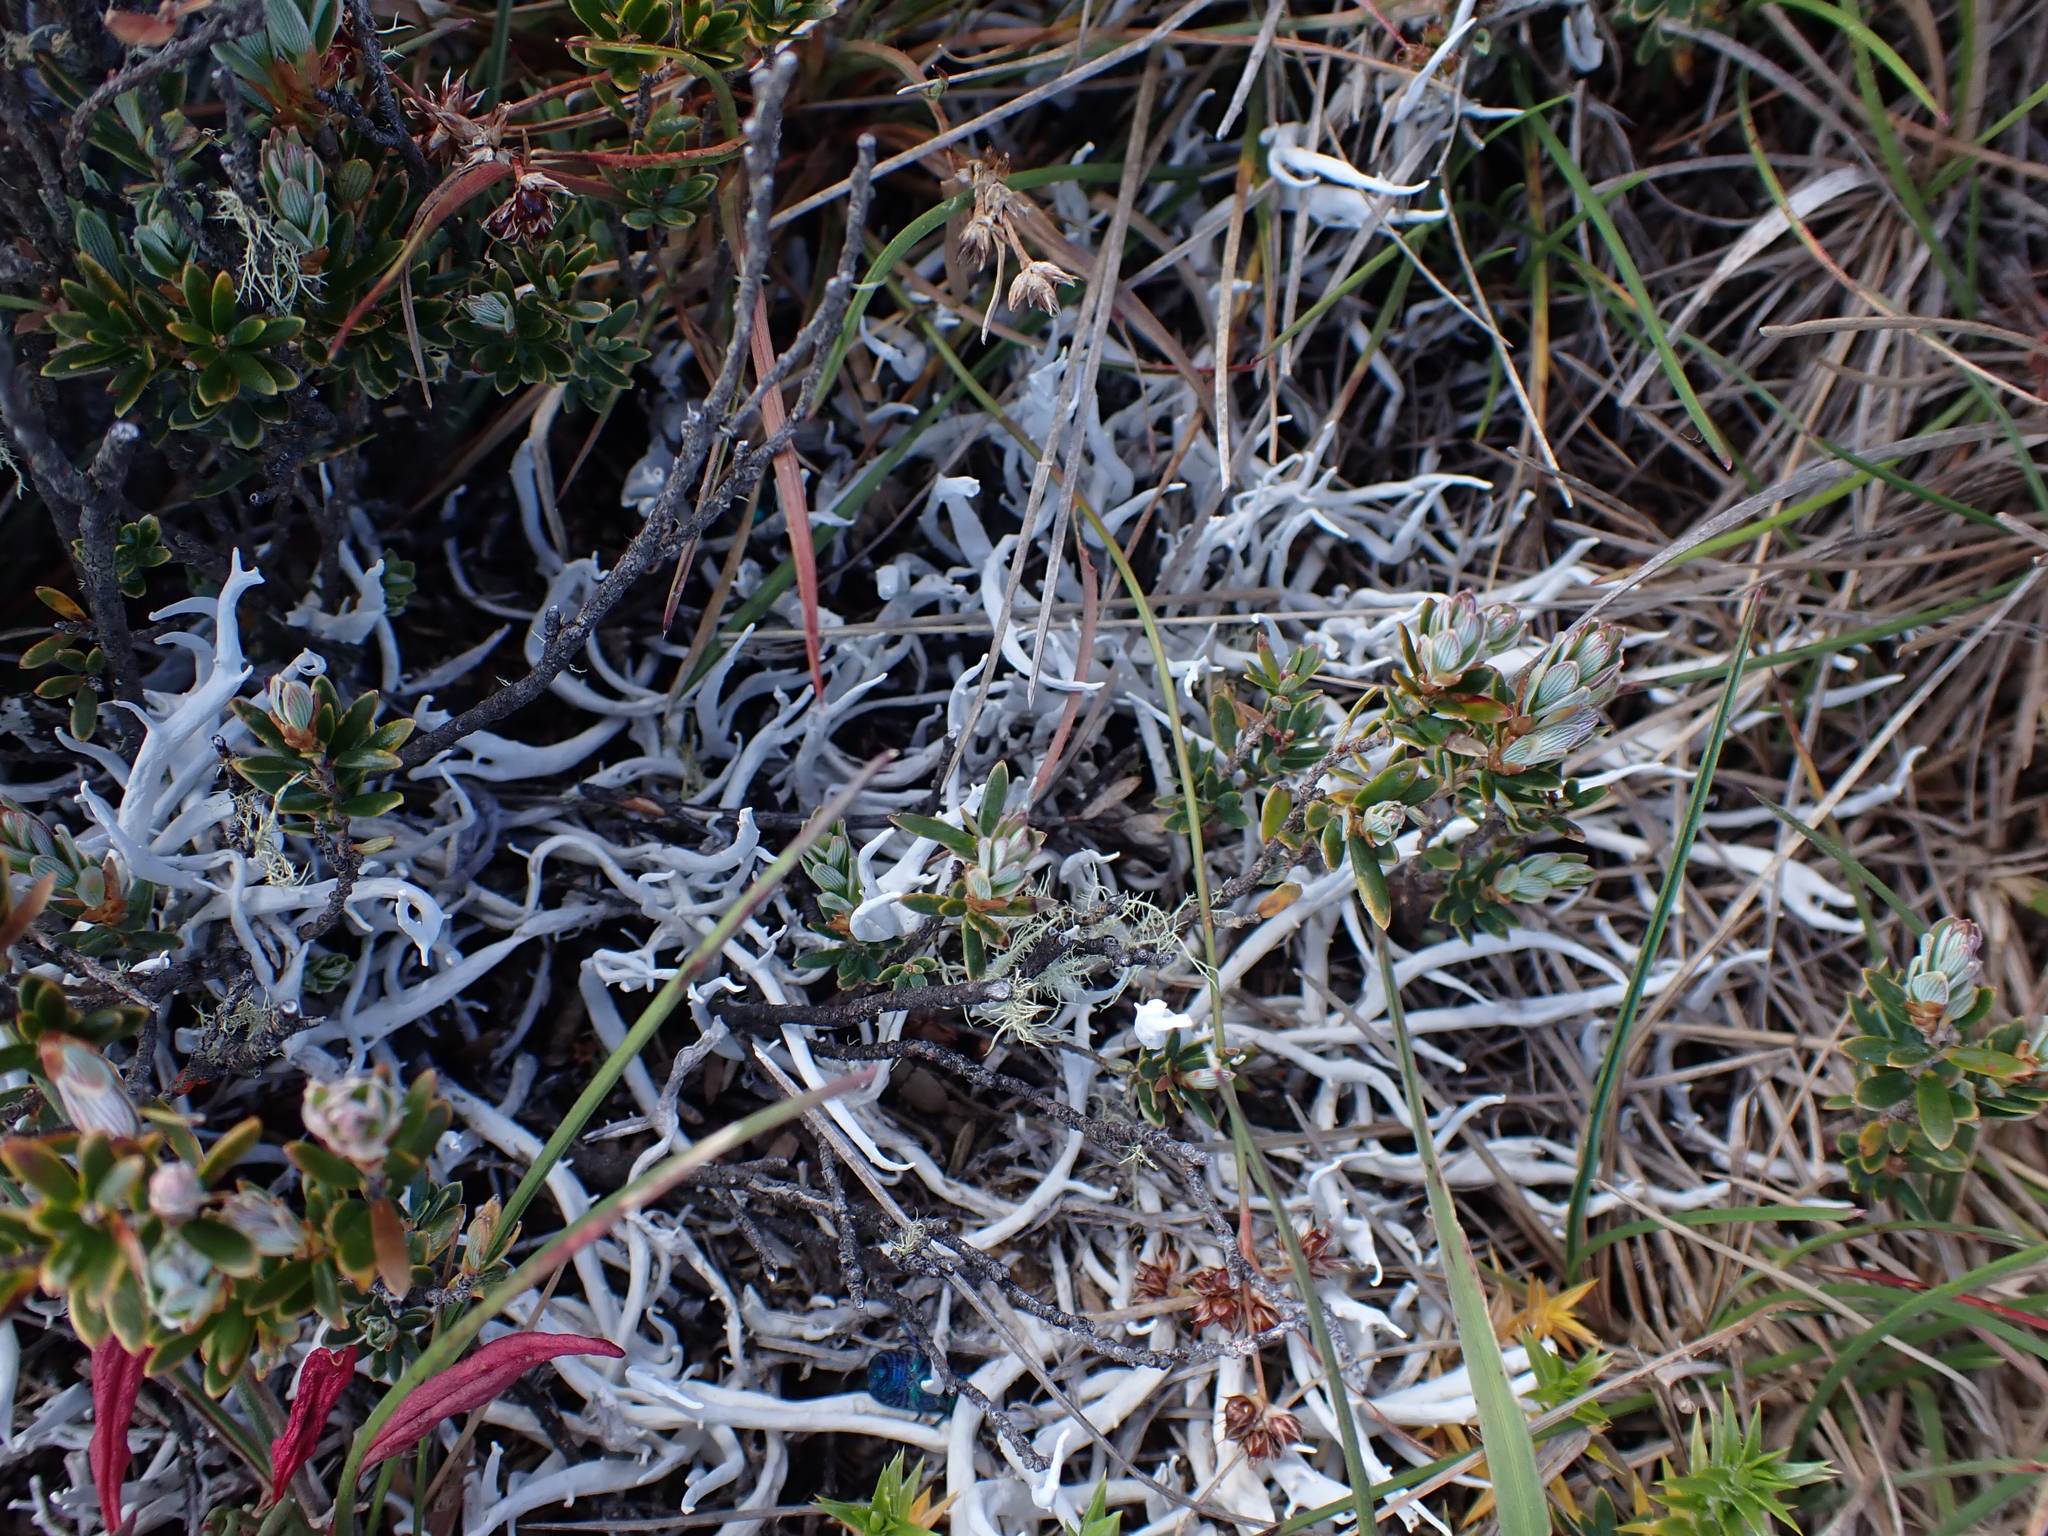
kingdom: Fungi
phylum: Ascomycota
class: Lecanoromycetes
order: Pertusariales
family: Icmadophilaceae
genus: Thamnolia
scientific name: Thamnolia vermicularis
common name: Whiteworm lichen
